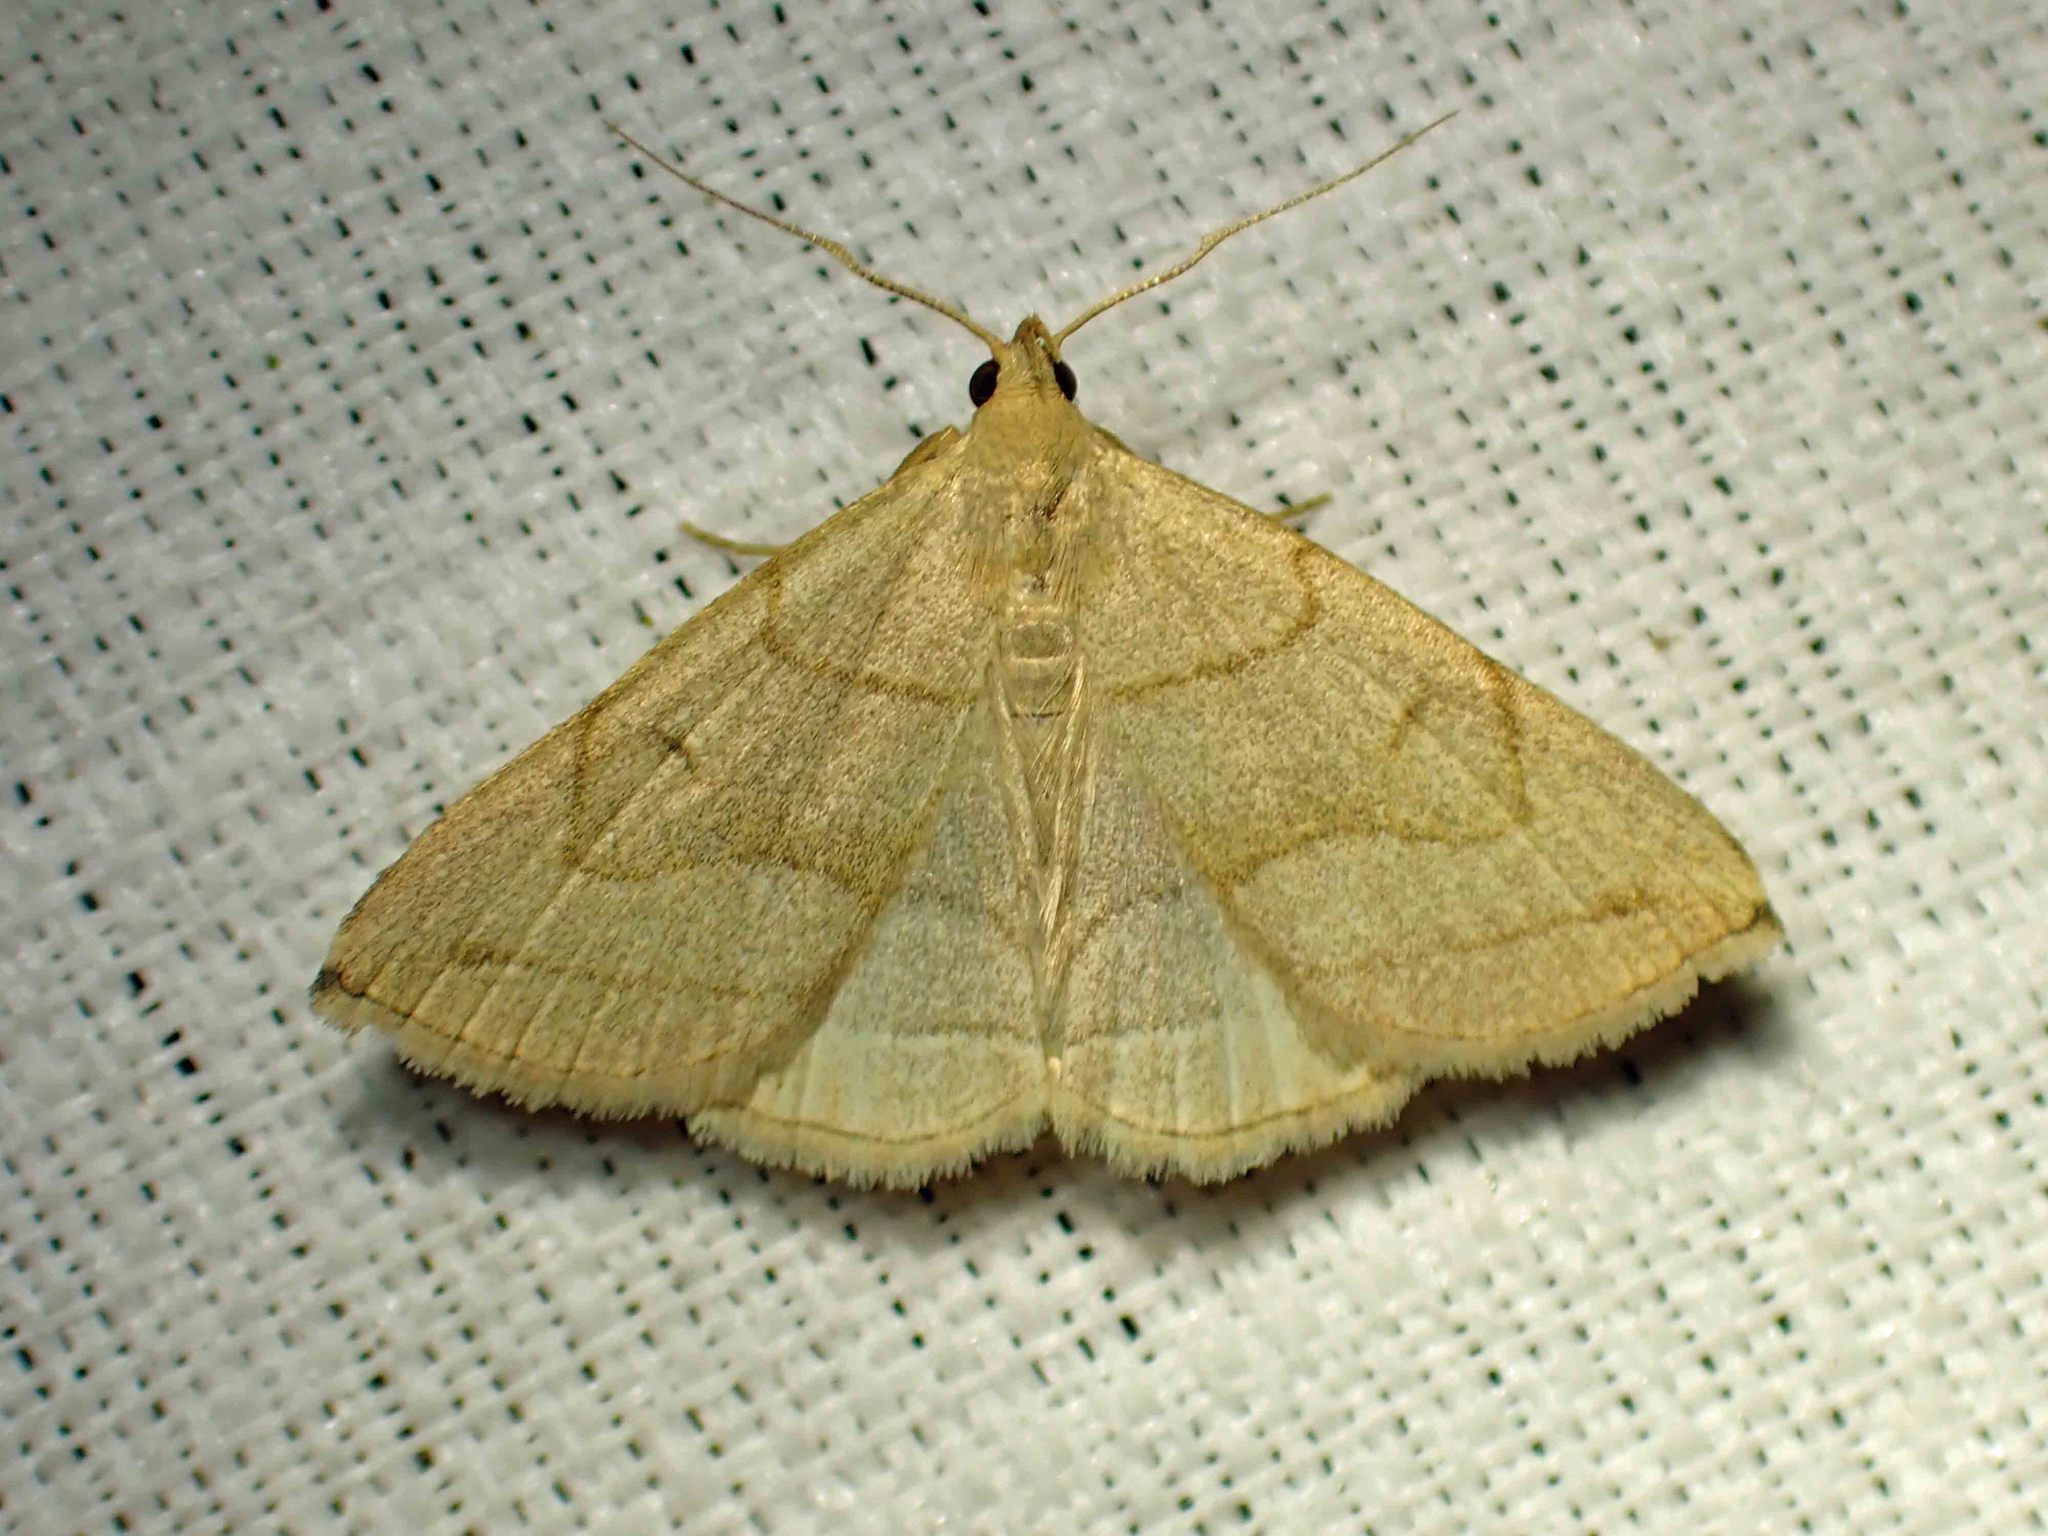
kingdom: Animalia
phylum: Arthropoda
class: Insecta
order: Lepidoptera
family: Erebidae
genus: Zanclognatha
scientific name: Zanclognatha pedipilalis
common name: Grayish fan-foot
